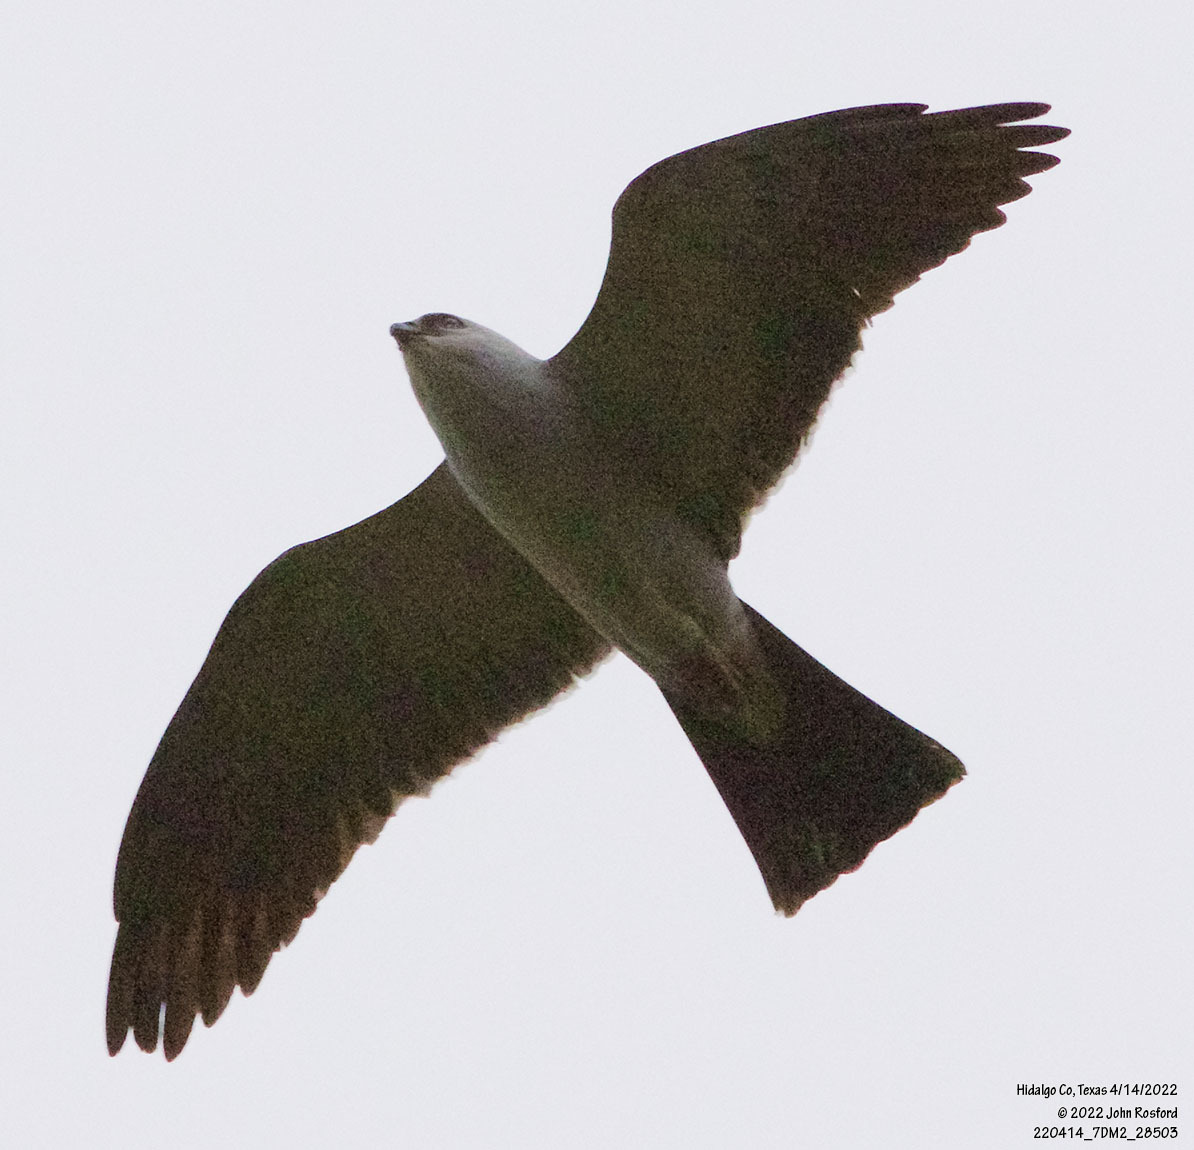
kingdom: Animalia
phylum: Chordata
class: Aves
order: Accipitriformes
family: Accipitridae
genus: Ictinia
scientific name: Ictinia mississippiensis
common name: Mississippi kite
